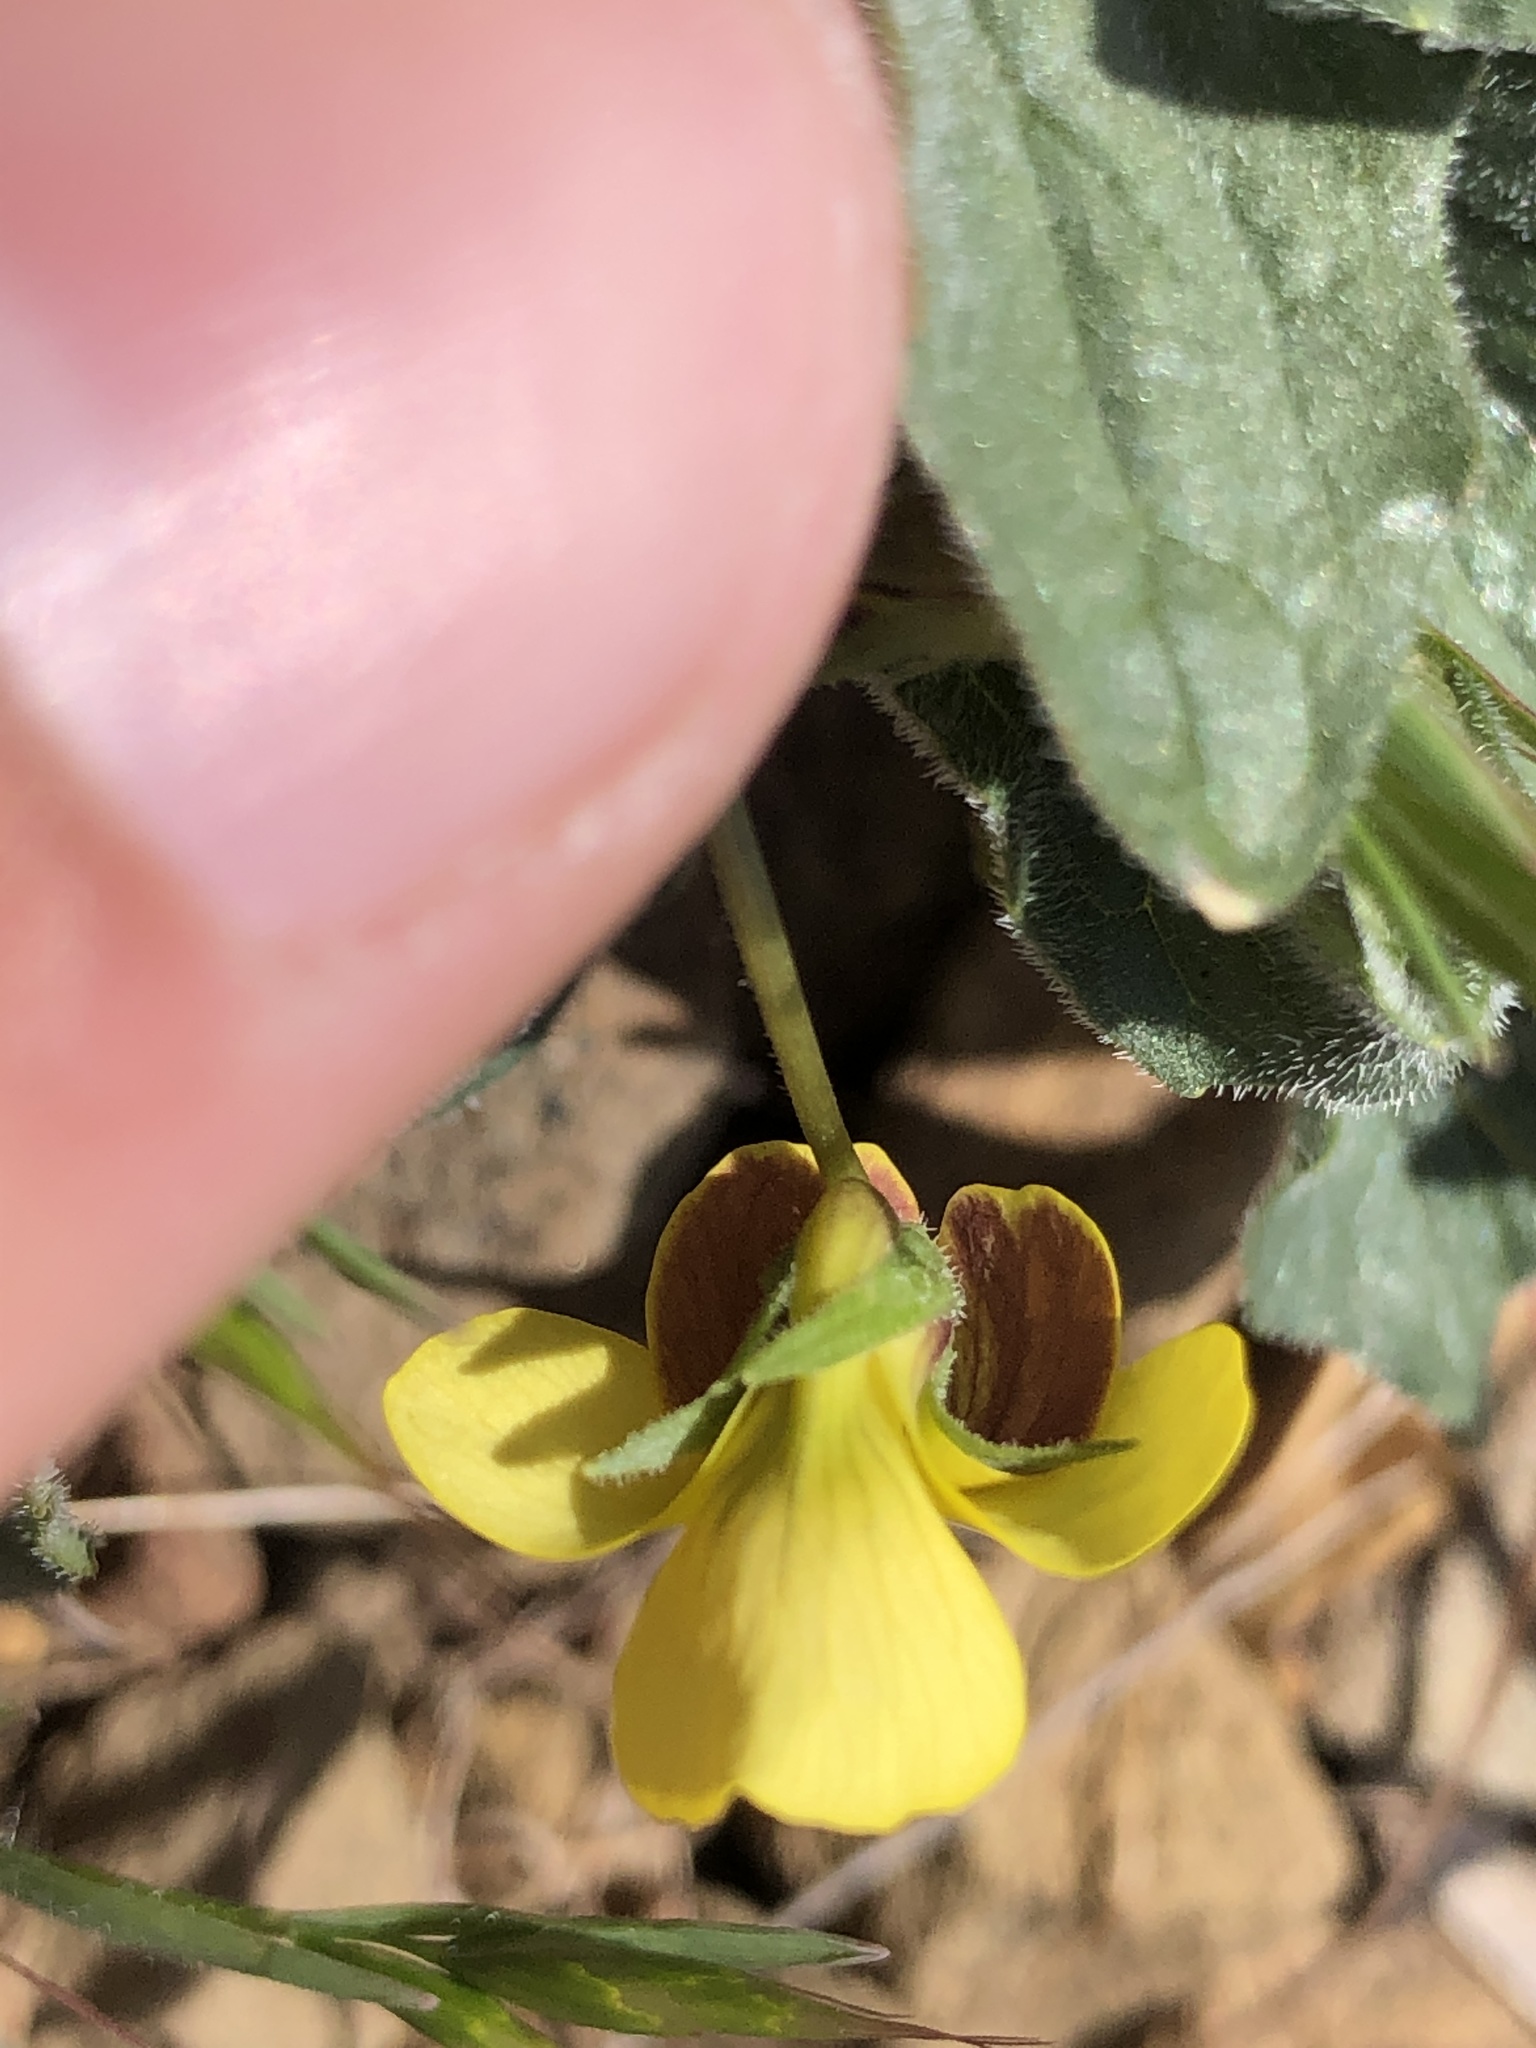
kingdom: Plantae
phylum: Tracheophyta
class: Magnoliopsida
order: Malpighiales
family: Violaceae
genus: Viola
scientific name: Viola purpurea
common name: Pine violet
